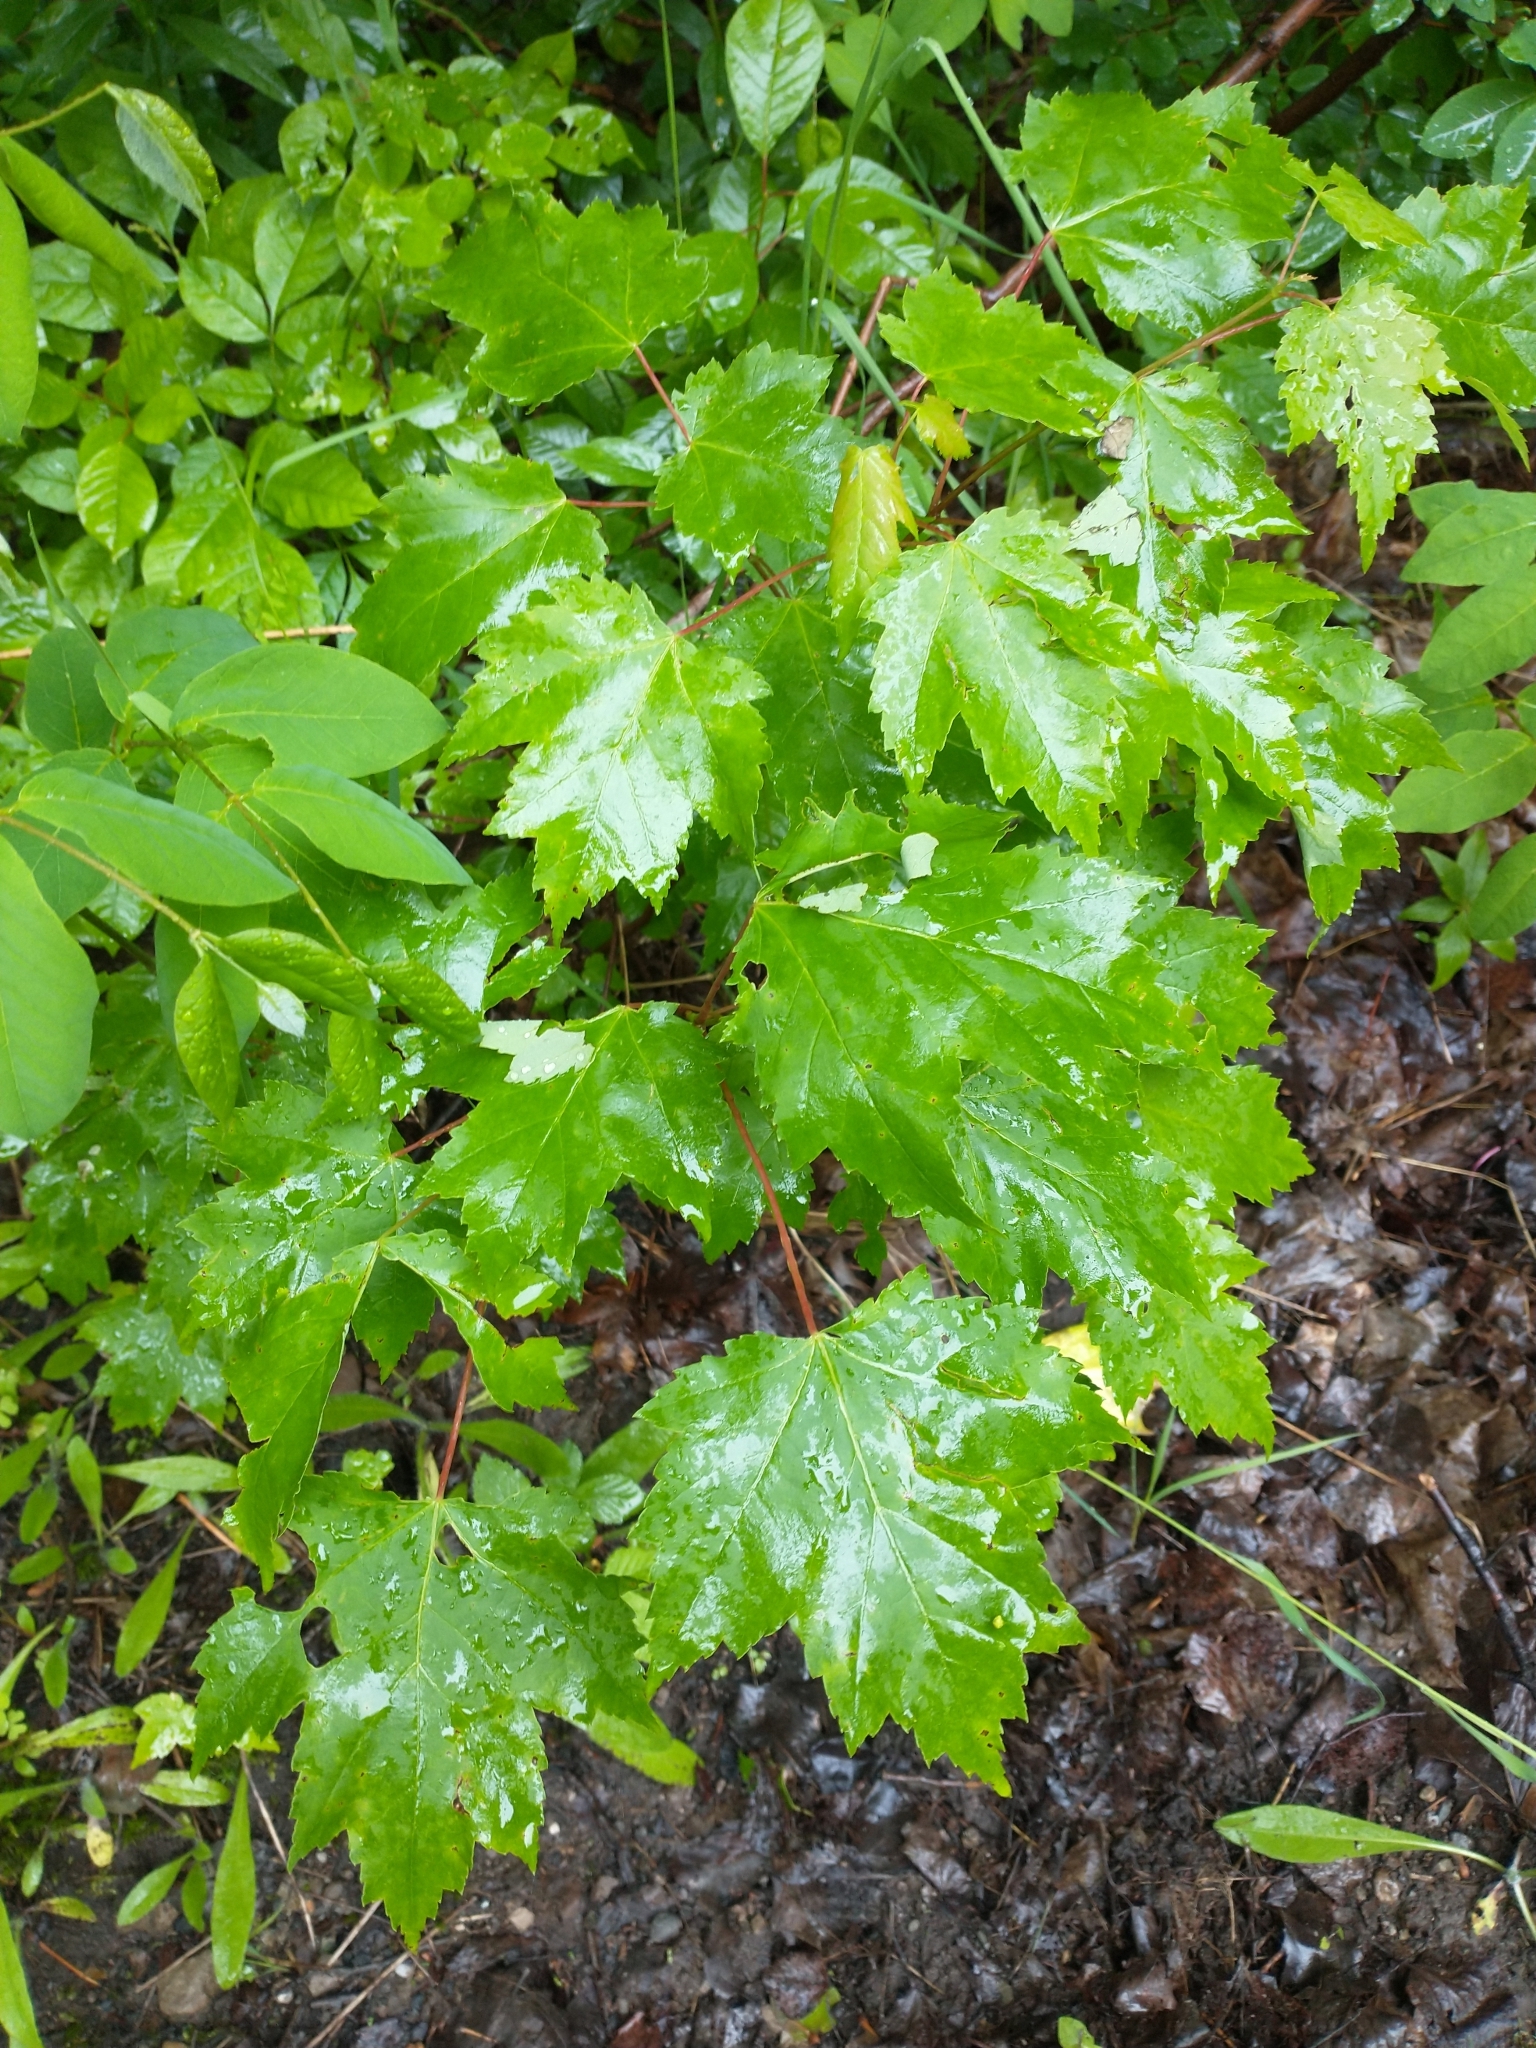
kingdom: Plantae
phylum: Tracheophyta
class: Magnoliopsida
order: Sapindales
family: Sapindaceae
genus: Acer
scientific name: Acer rubrum
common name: Red maple
